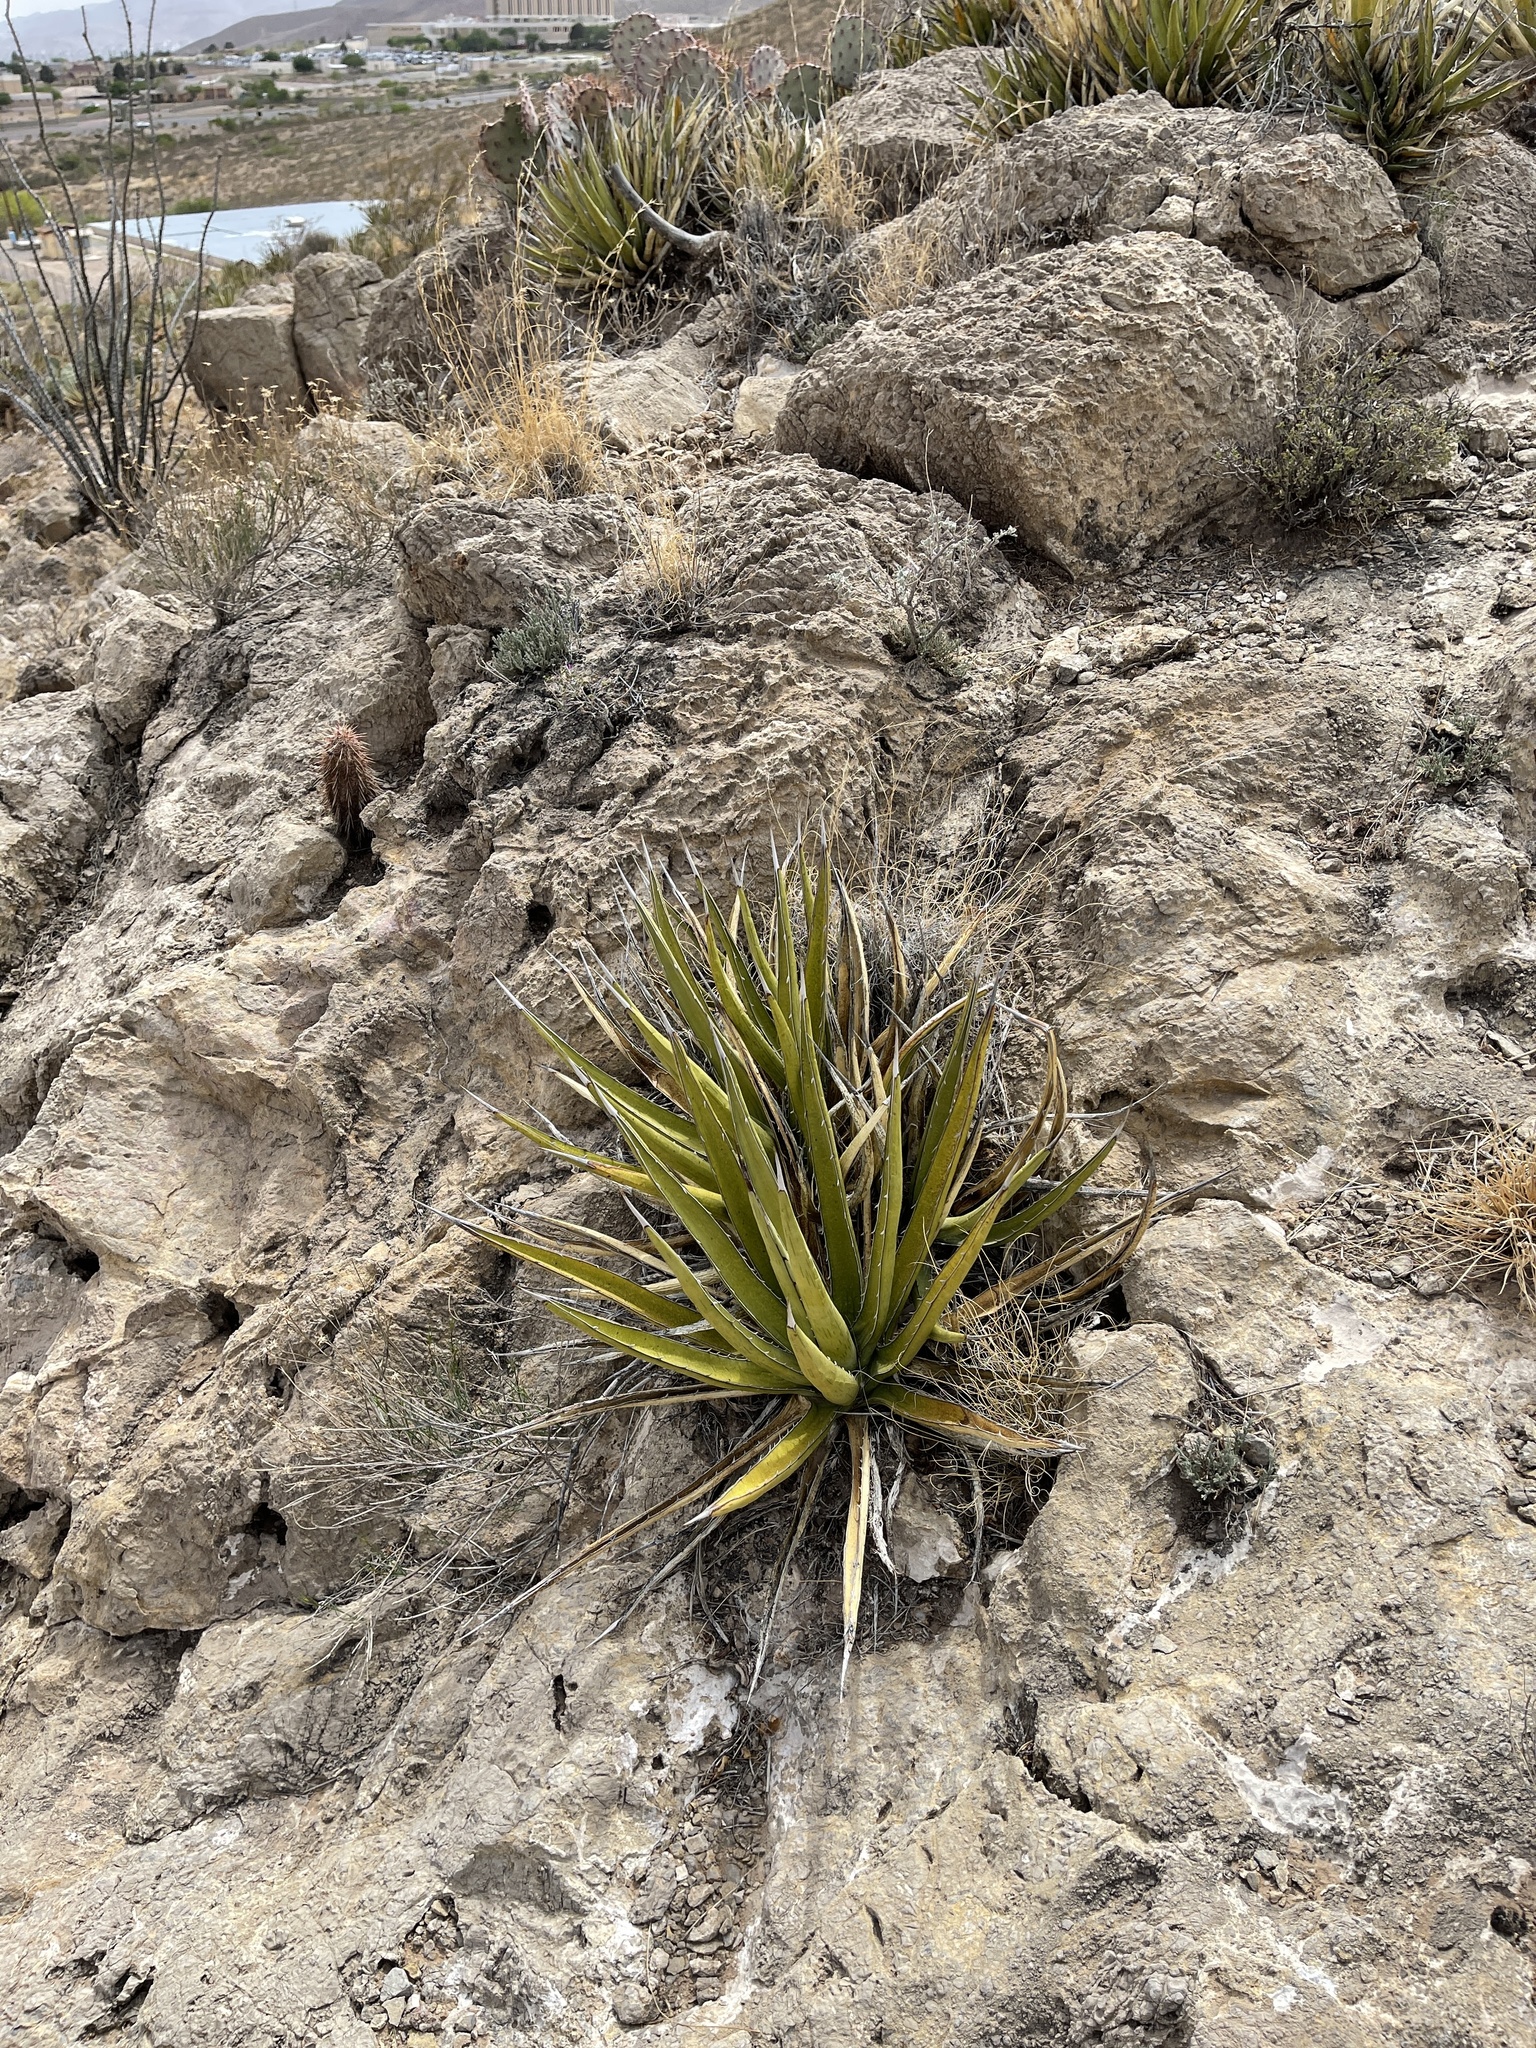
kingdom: Plantae
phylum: Tracheophyta
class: Liliopsida
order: Asparagales
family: Asparagaceae
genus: Agave
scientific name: Agave lechuguilla
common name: Lecheguilla agave
